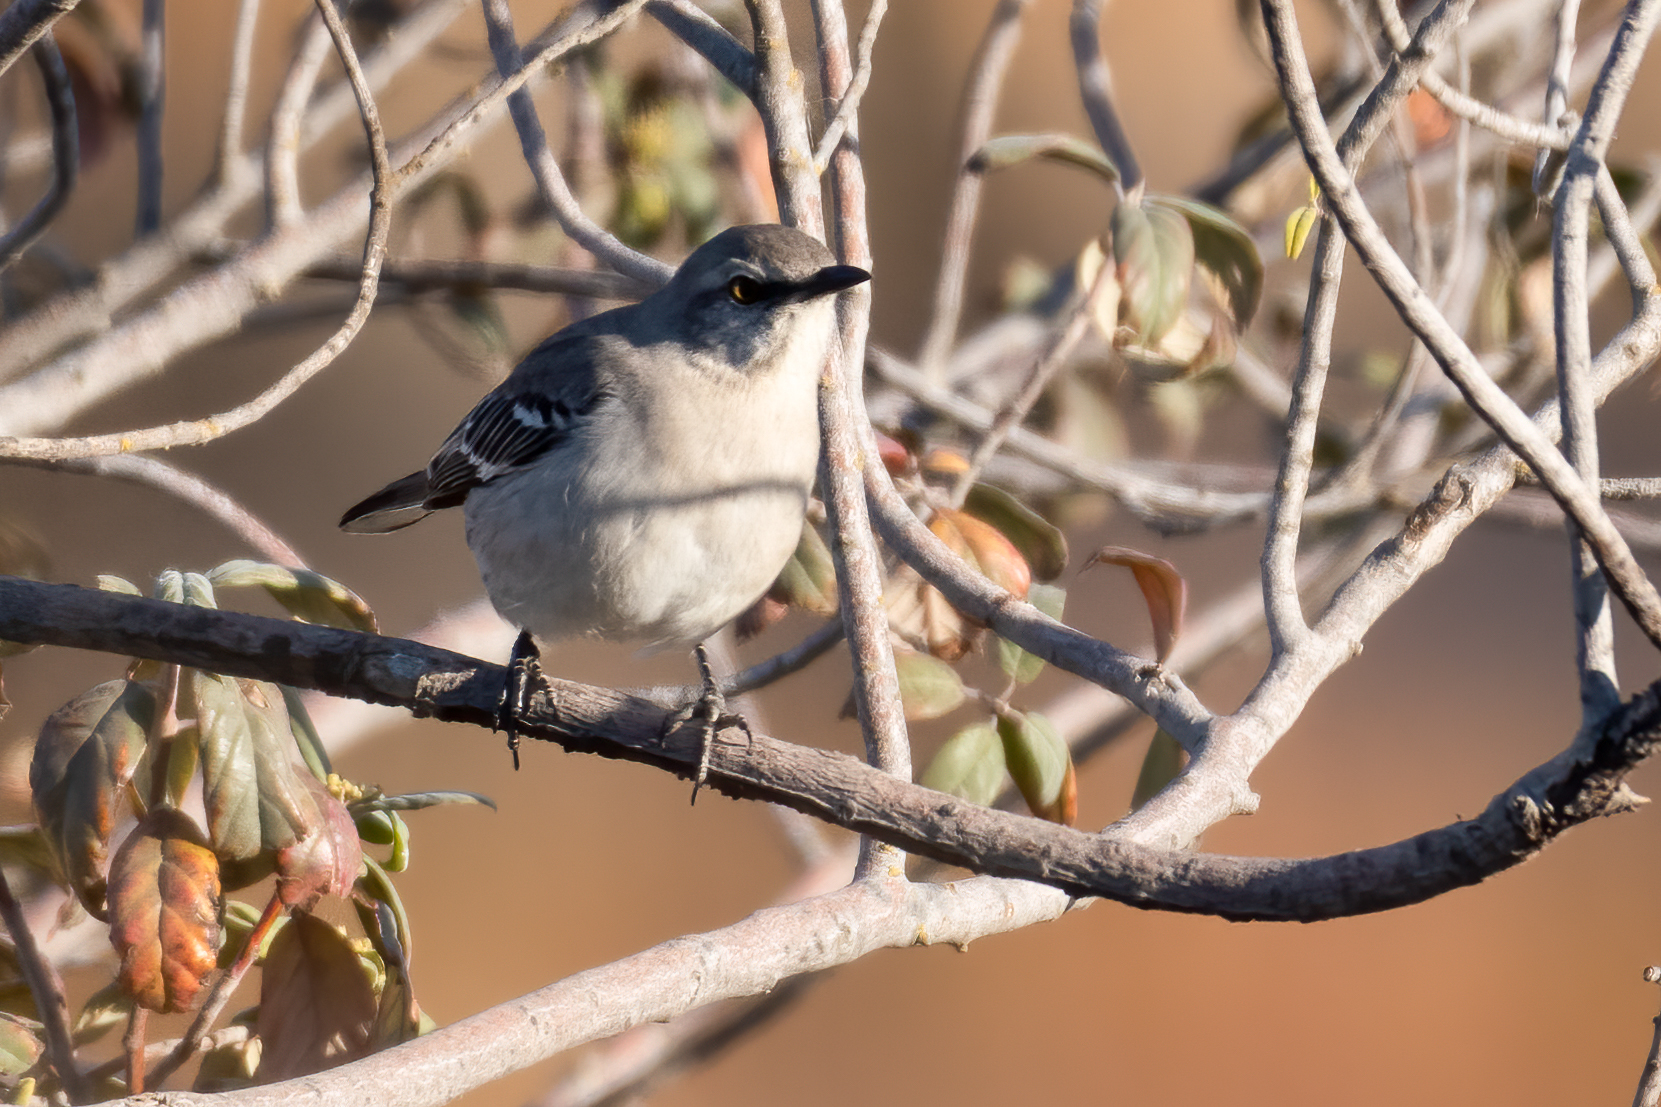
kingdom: Animalia
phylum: Chordata
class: Aves
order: Passeriformes
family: Mimidae
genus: Mimus
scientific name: Mimus polyglottos
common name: Northern mockingbird
